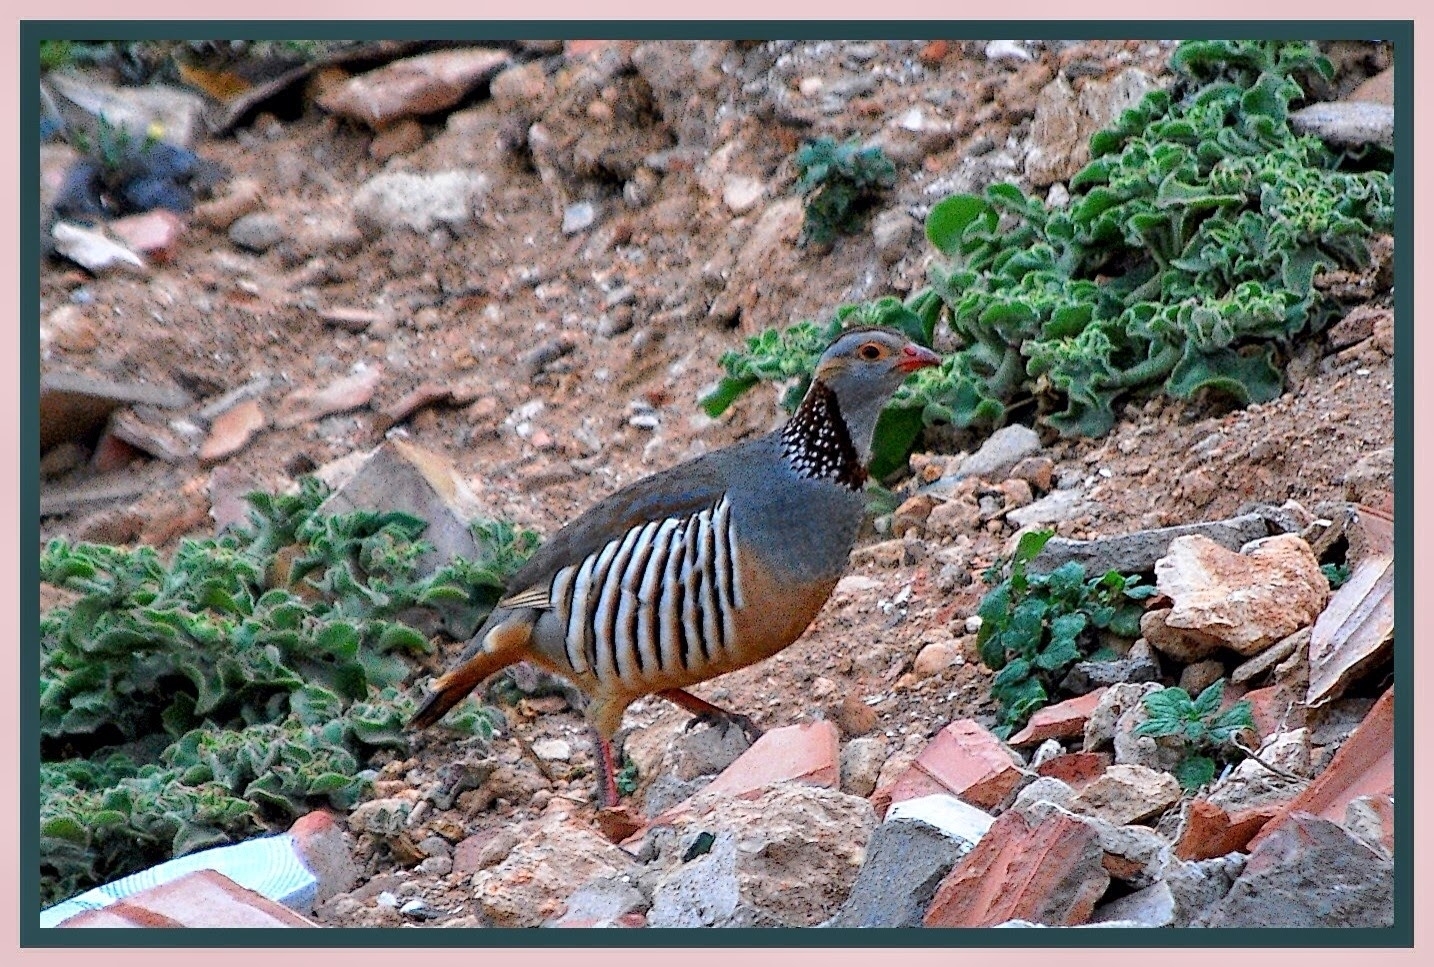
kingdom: Animalia
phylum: Chordata
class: Aves
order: Galliformes
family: Phasianidae
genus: Alectoris
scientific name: Alectoris barbara
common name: Barbary partridge
